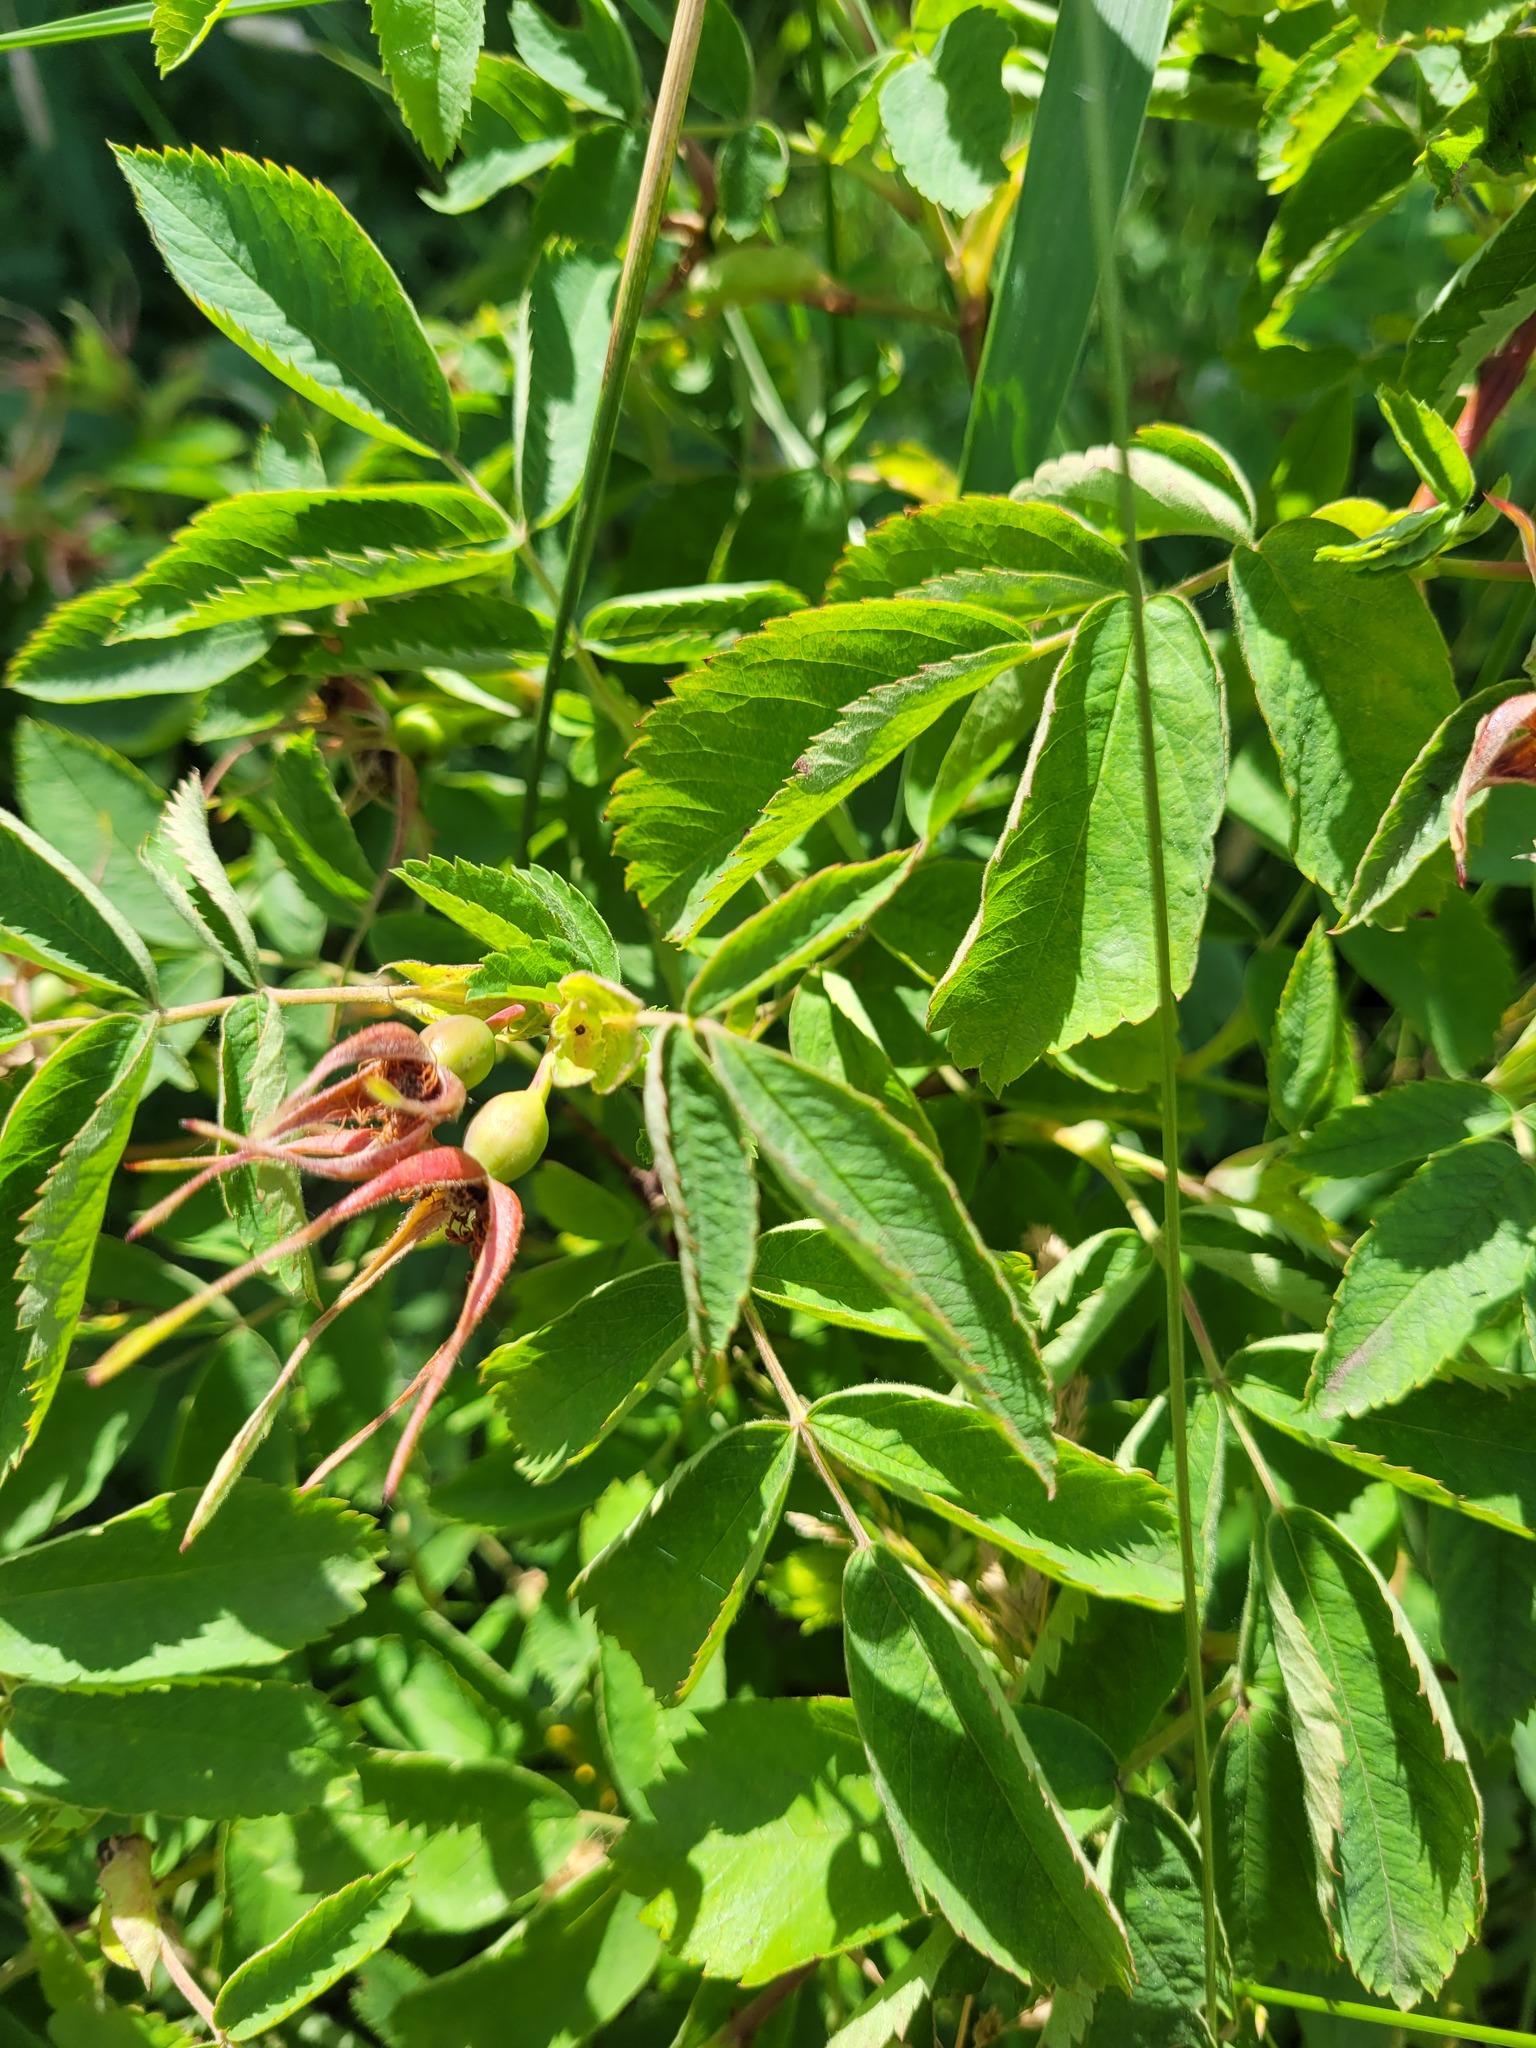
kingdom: Plantae
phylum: Tracheophyta
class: Magnoliopsida
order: Rosales
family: Rosaceae
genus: Rosa
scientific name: Rosa majalis
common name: Cinnamon rose
